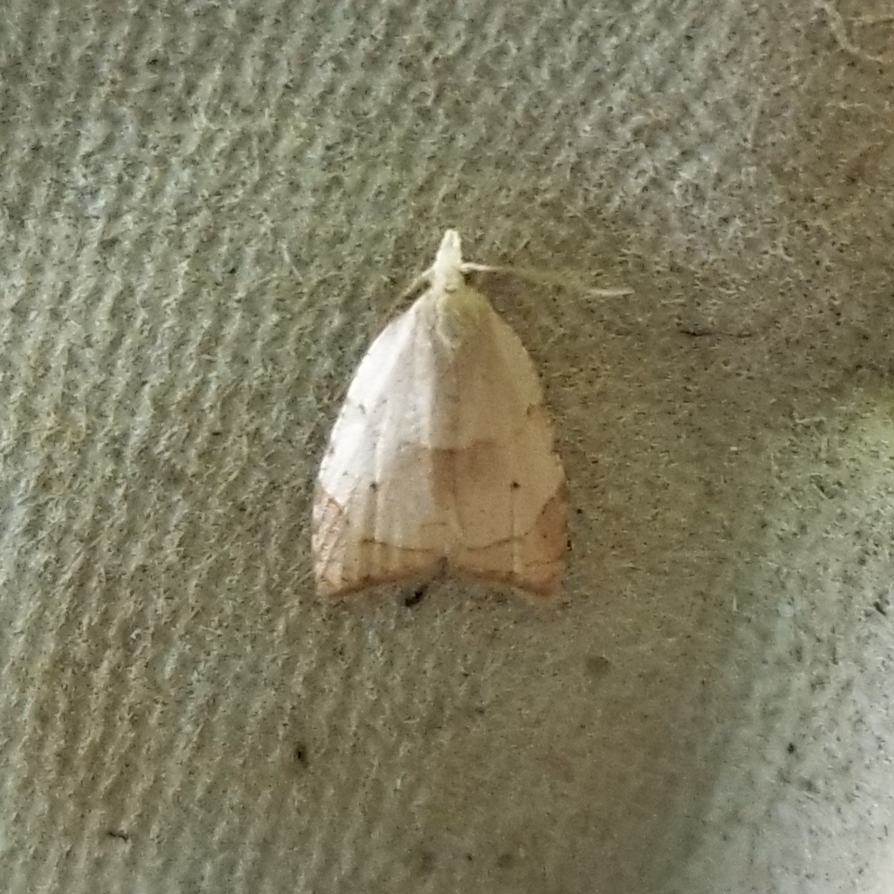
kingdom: Animalia
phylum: Arthropoda
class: Insecta
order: Lepidoptera
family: Tortricidae
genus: Coelostathma
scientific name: Coelostathma discopunctana
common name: Batman moth
